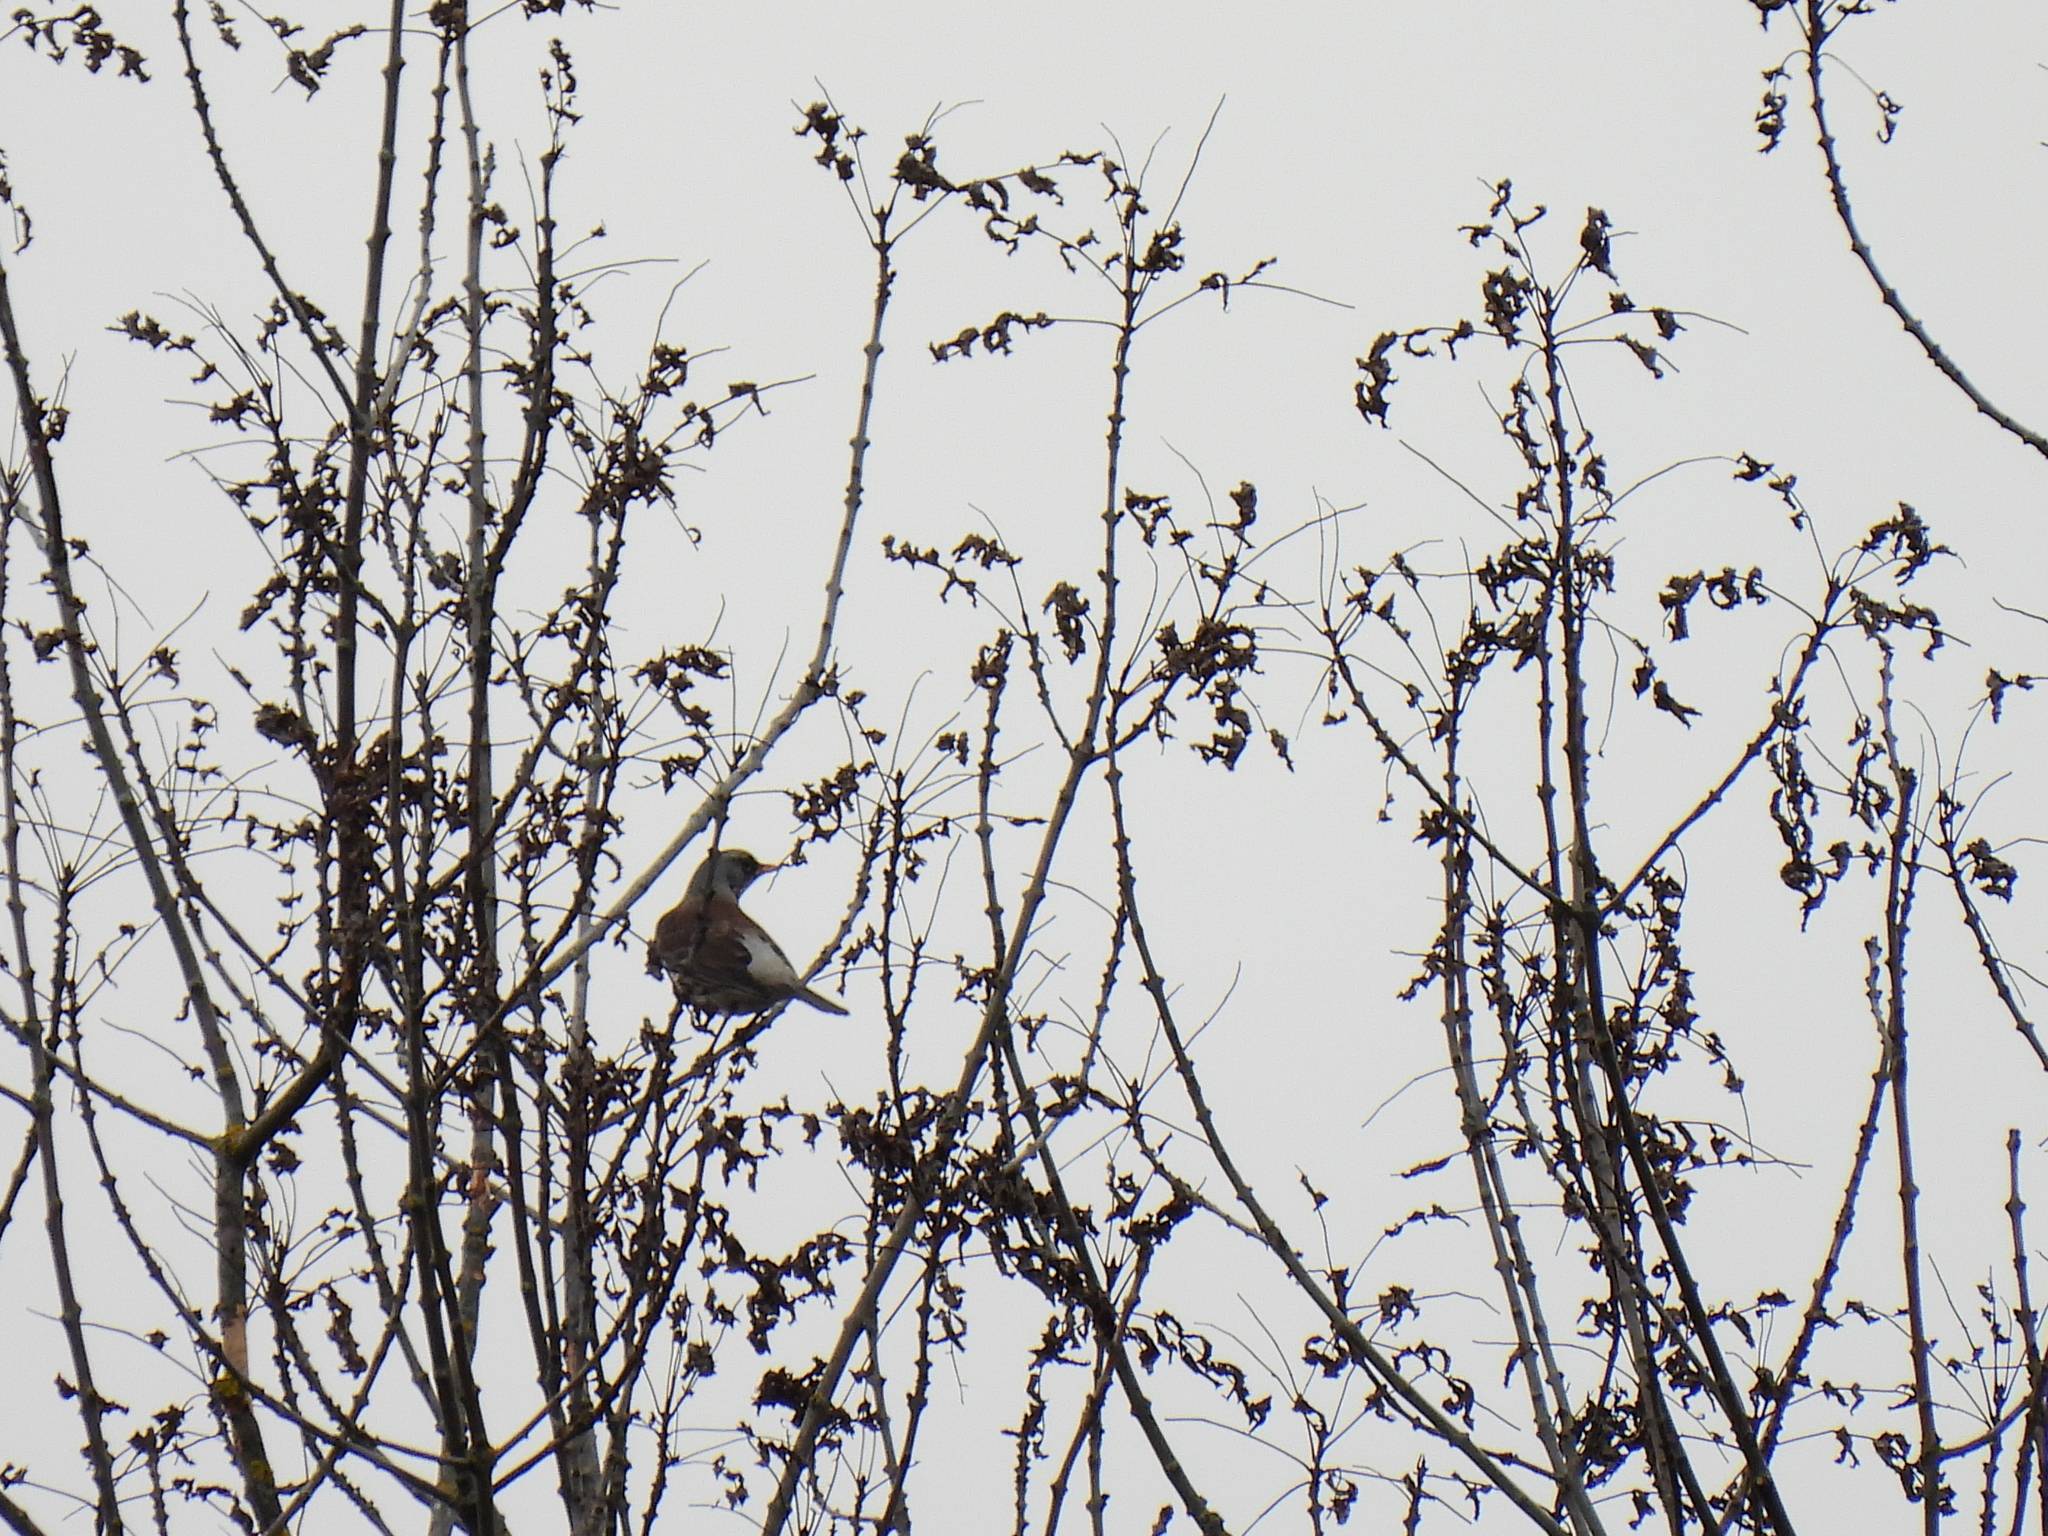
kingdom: Animalia
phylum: Chordata
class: Aves
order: Passeriformes
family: Turdidae
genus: Turdus
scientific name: Turdus pilaris
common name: Fieldfare
